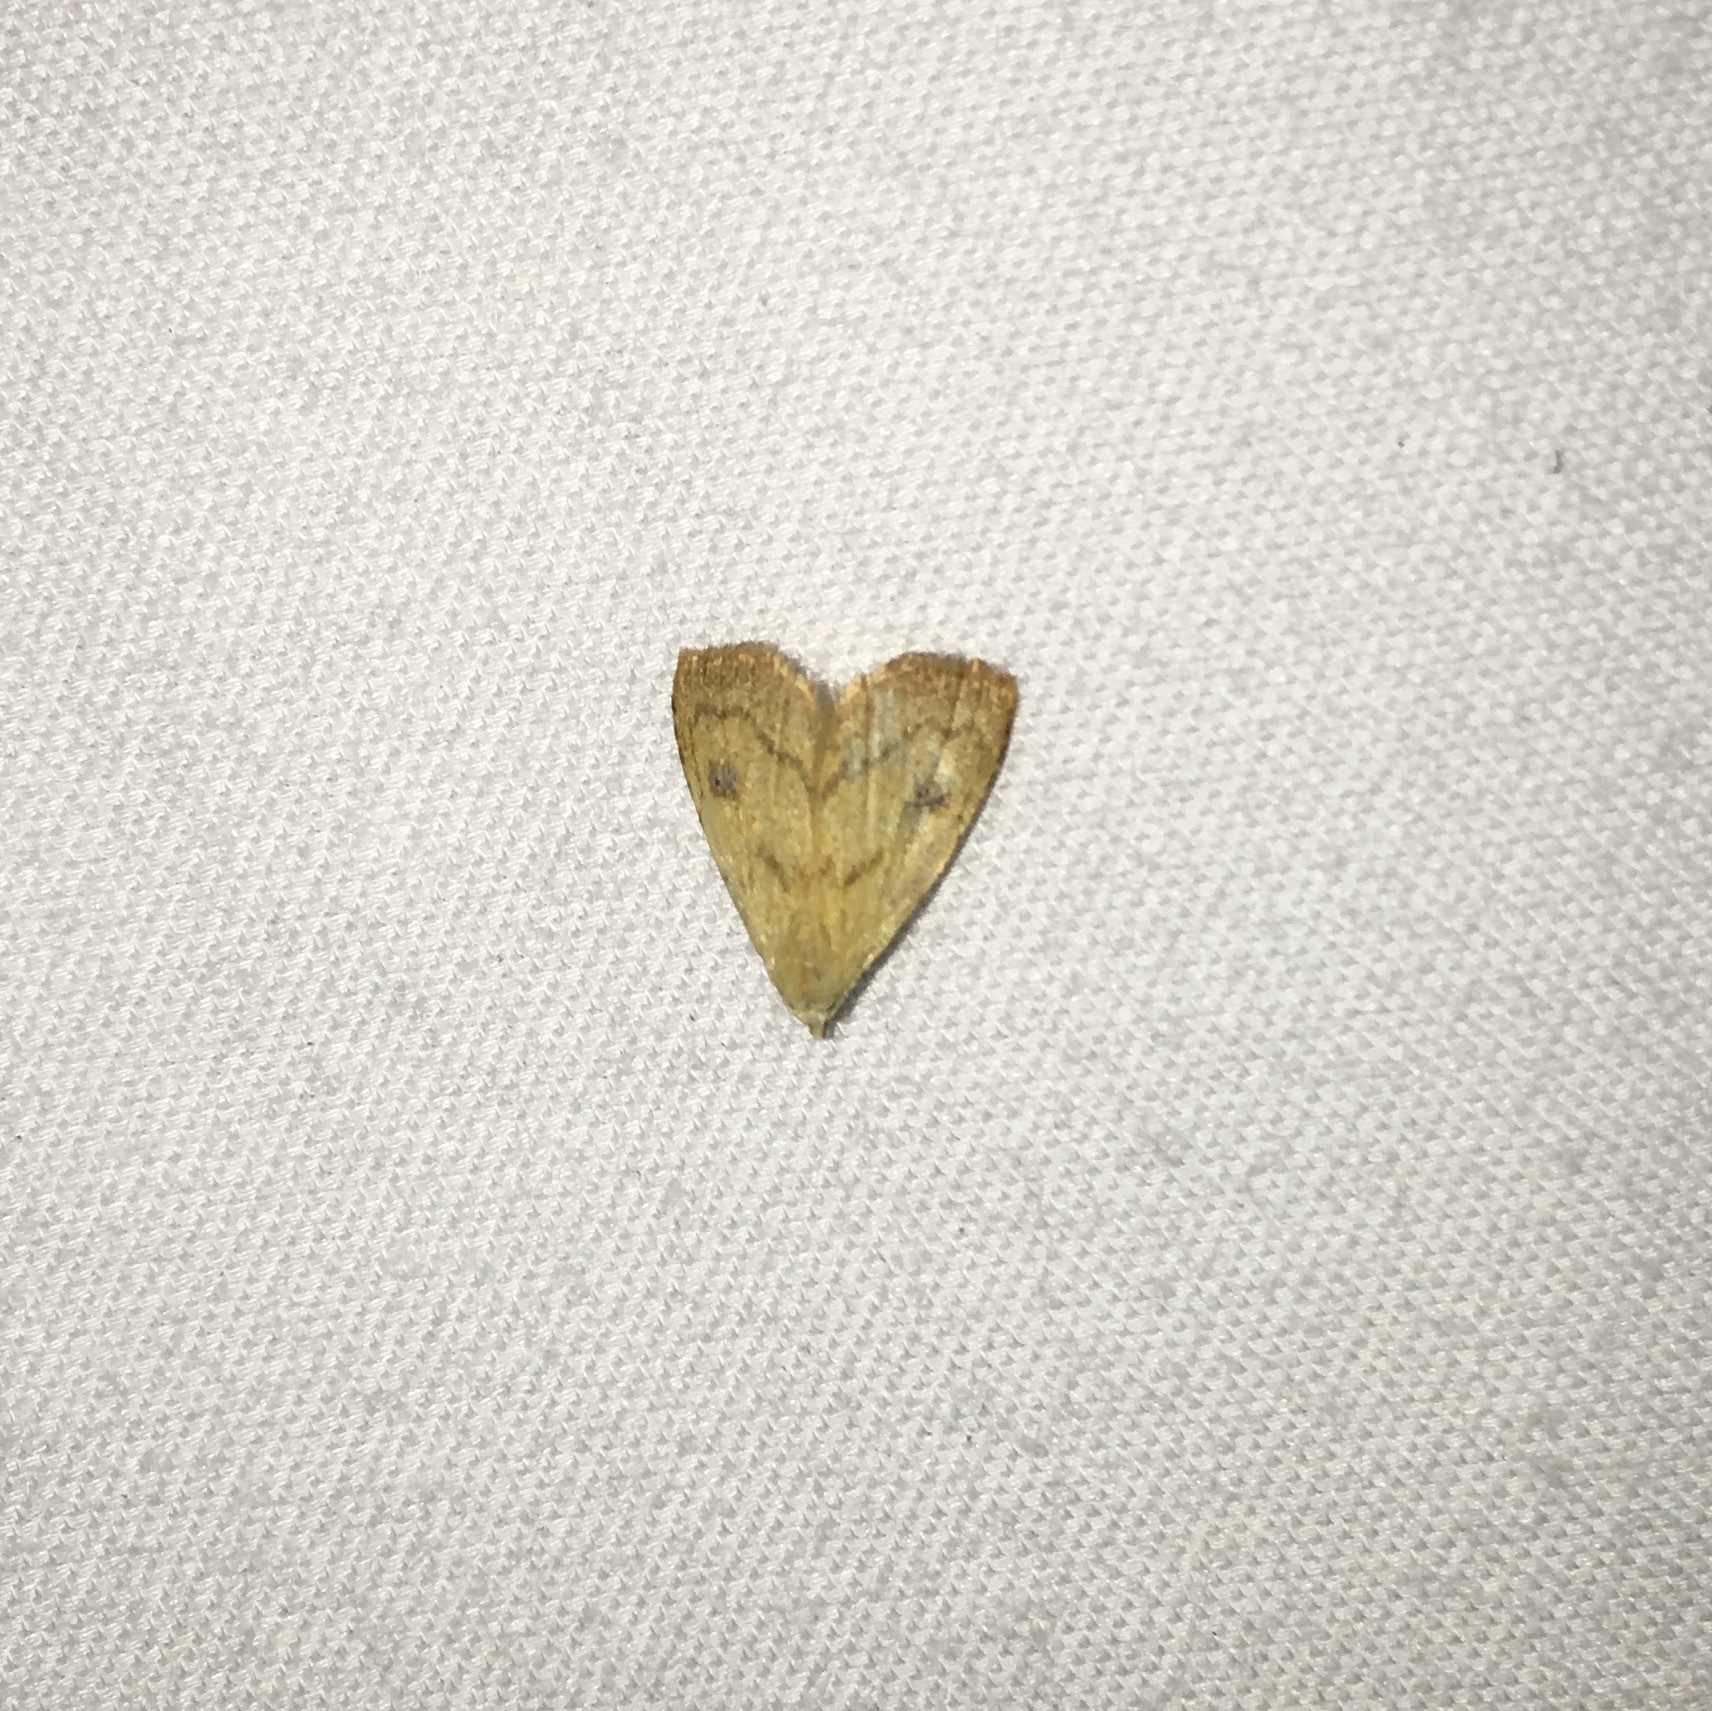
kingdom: Animalia
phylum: Arthropoda
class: Insecta
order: Lepidoptera
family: Erebidae
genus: Rivula
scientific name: Rivula propinqualis
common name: Spotted grass moth
